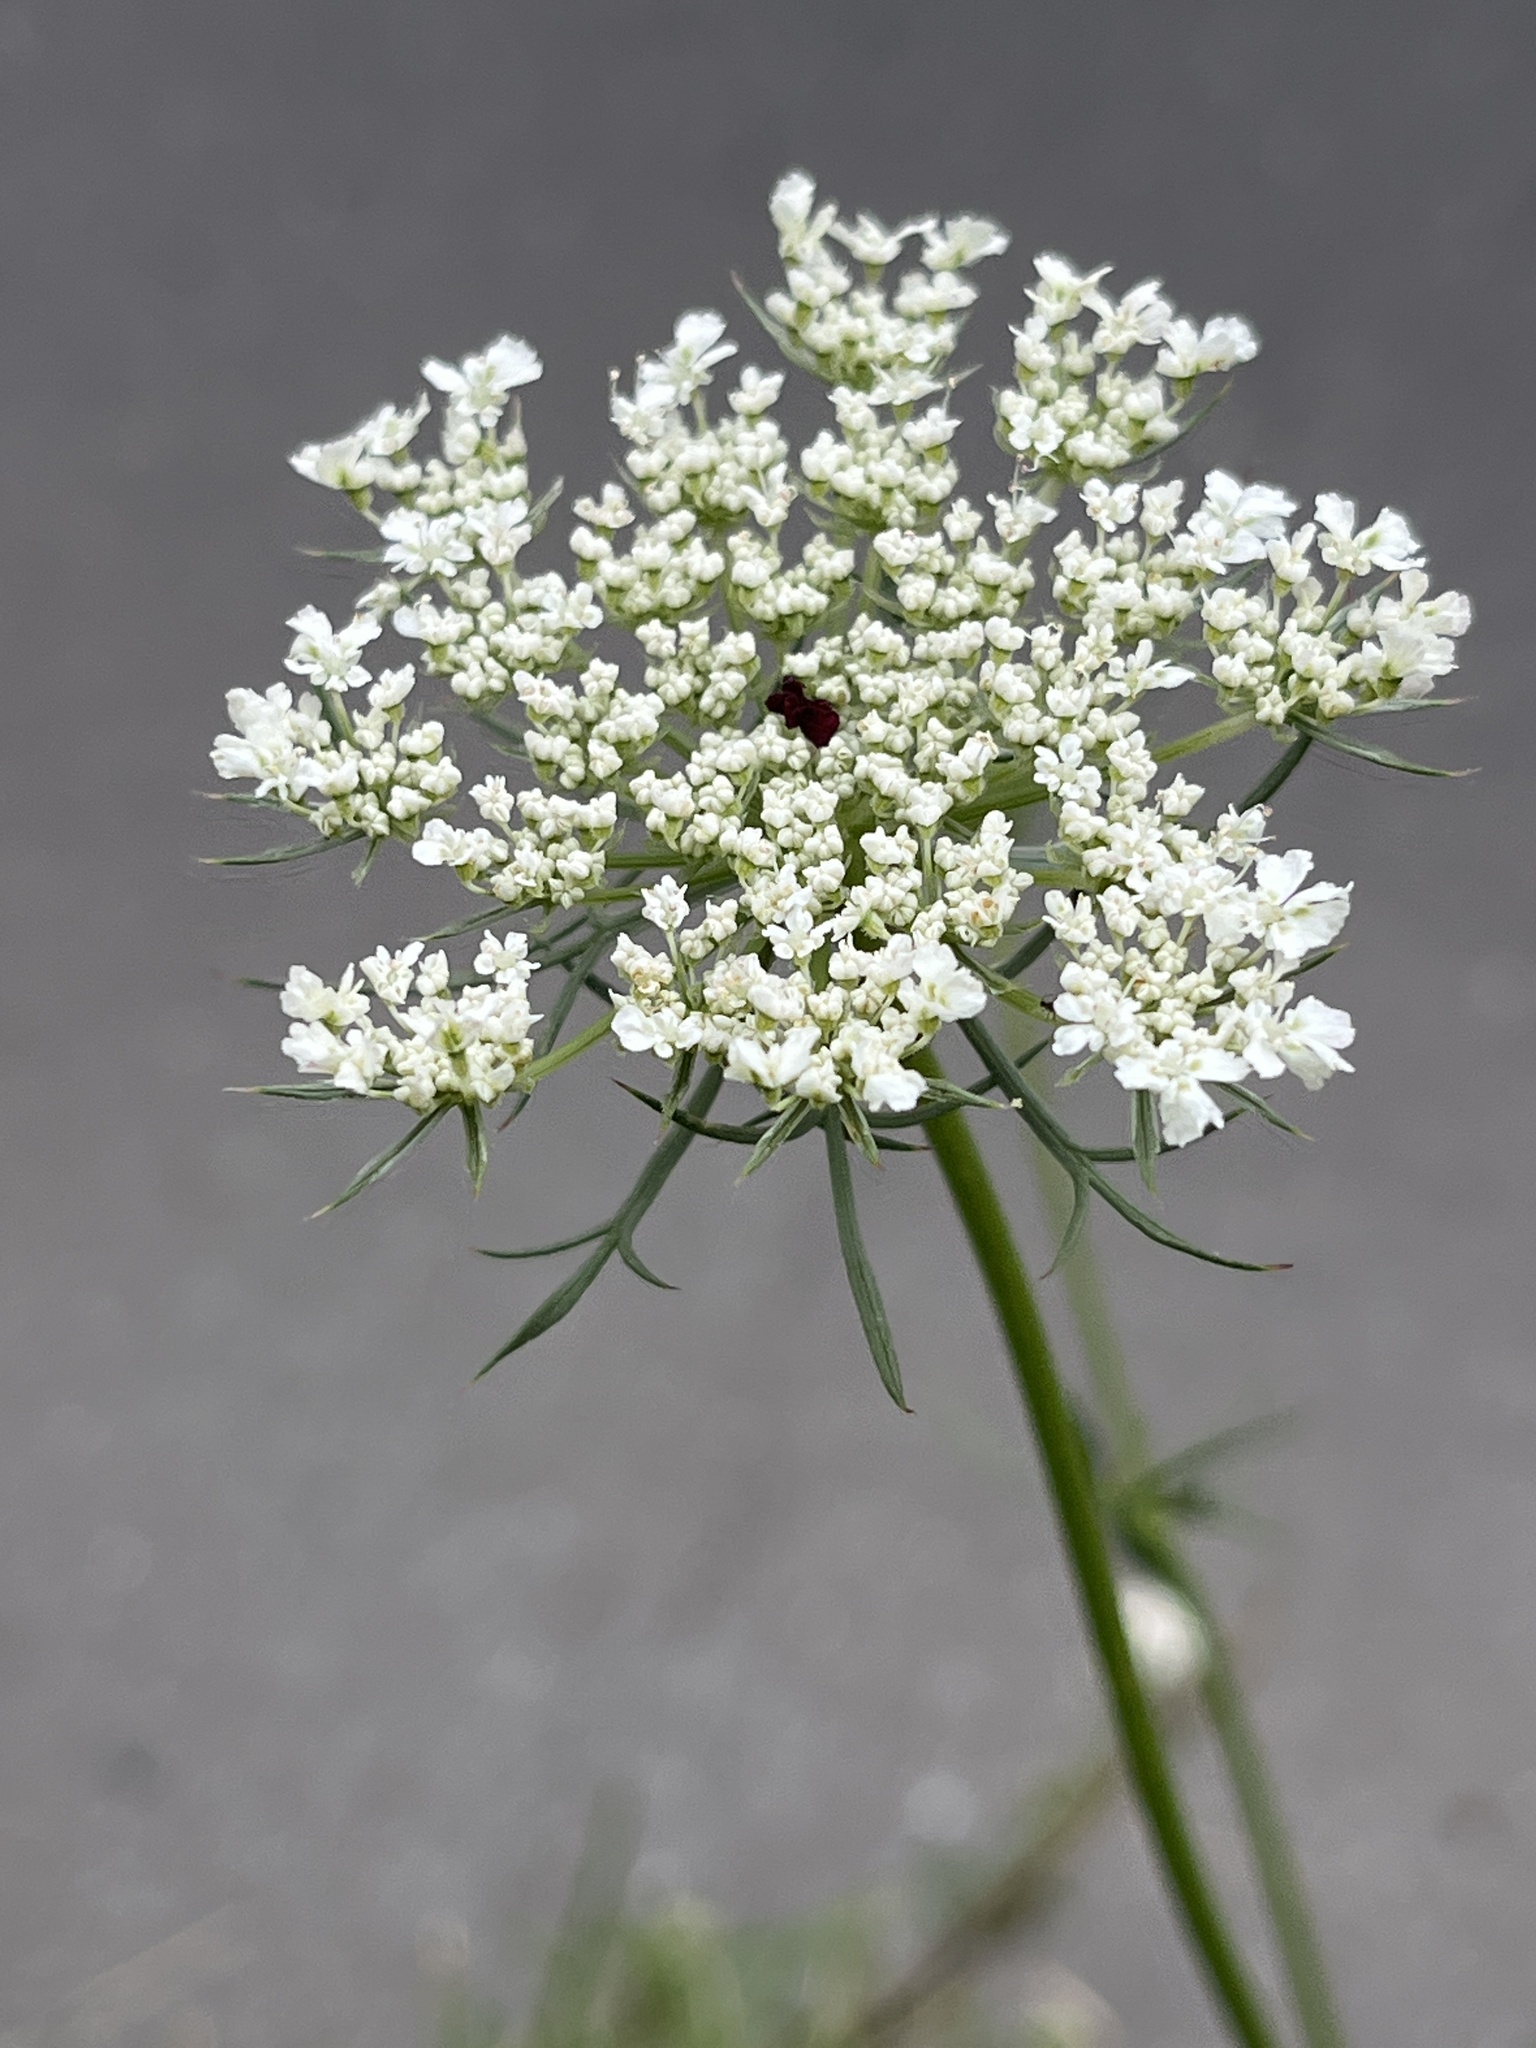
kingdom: Plantae
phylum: Tracheophyta
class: Magnoliopsida
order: Apiales
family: Apiaceae
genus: Daucus
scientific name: Daucus carota
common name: Wild carrot
